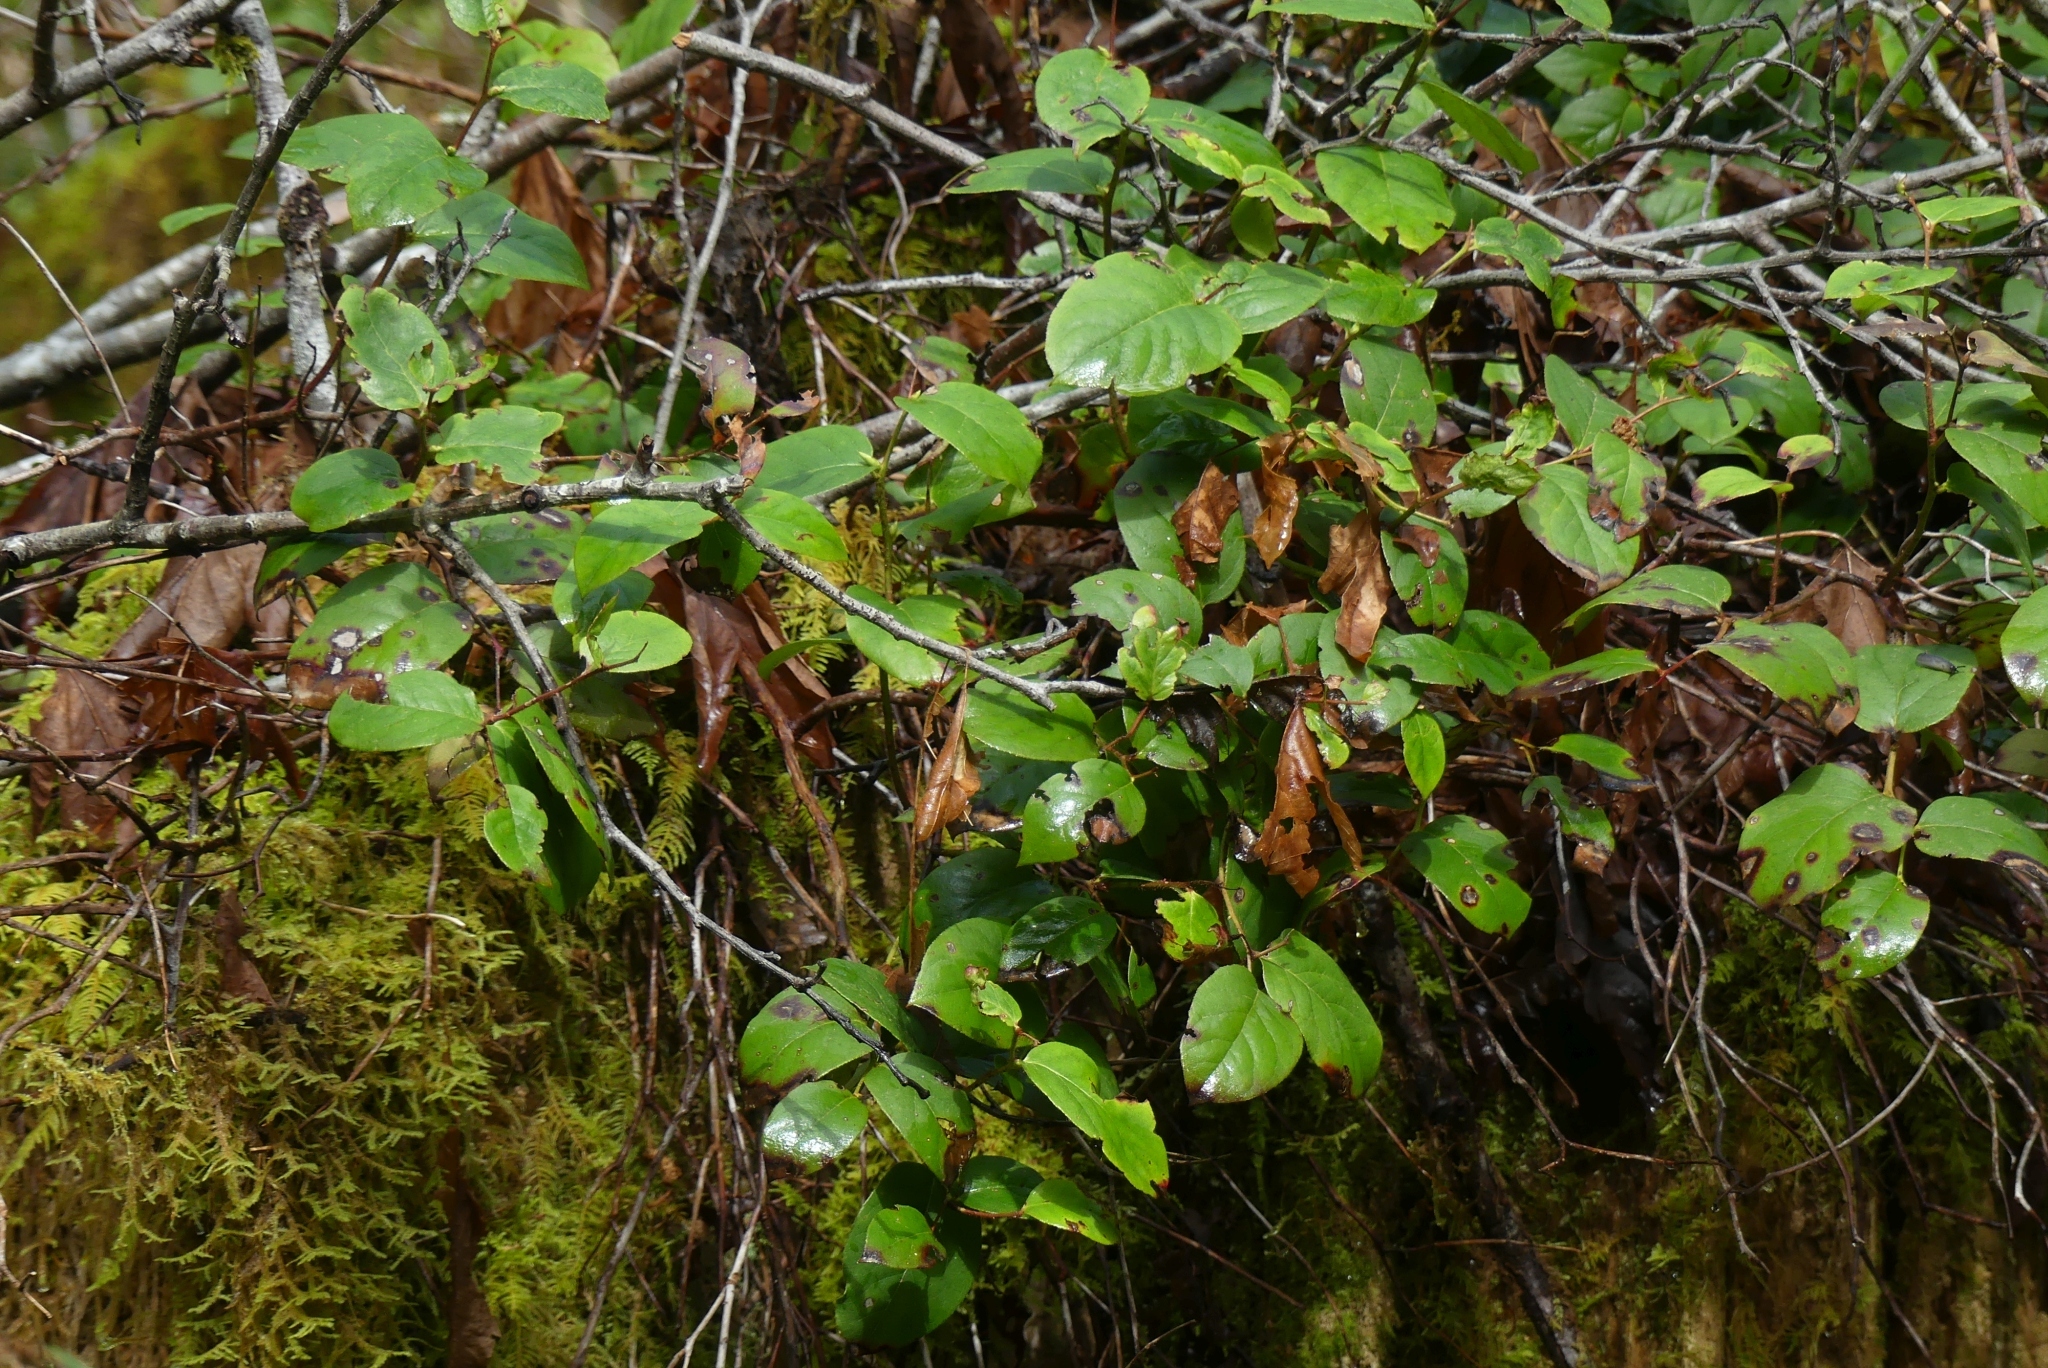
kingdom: Plantae
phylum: Tracheophyta
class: Magnoliopsida
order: Ericales
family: Ericaceae
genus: Gaultheria
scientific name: Gaultheria shallon
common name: Shallon
